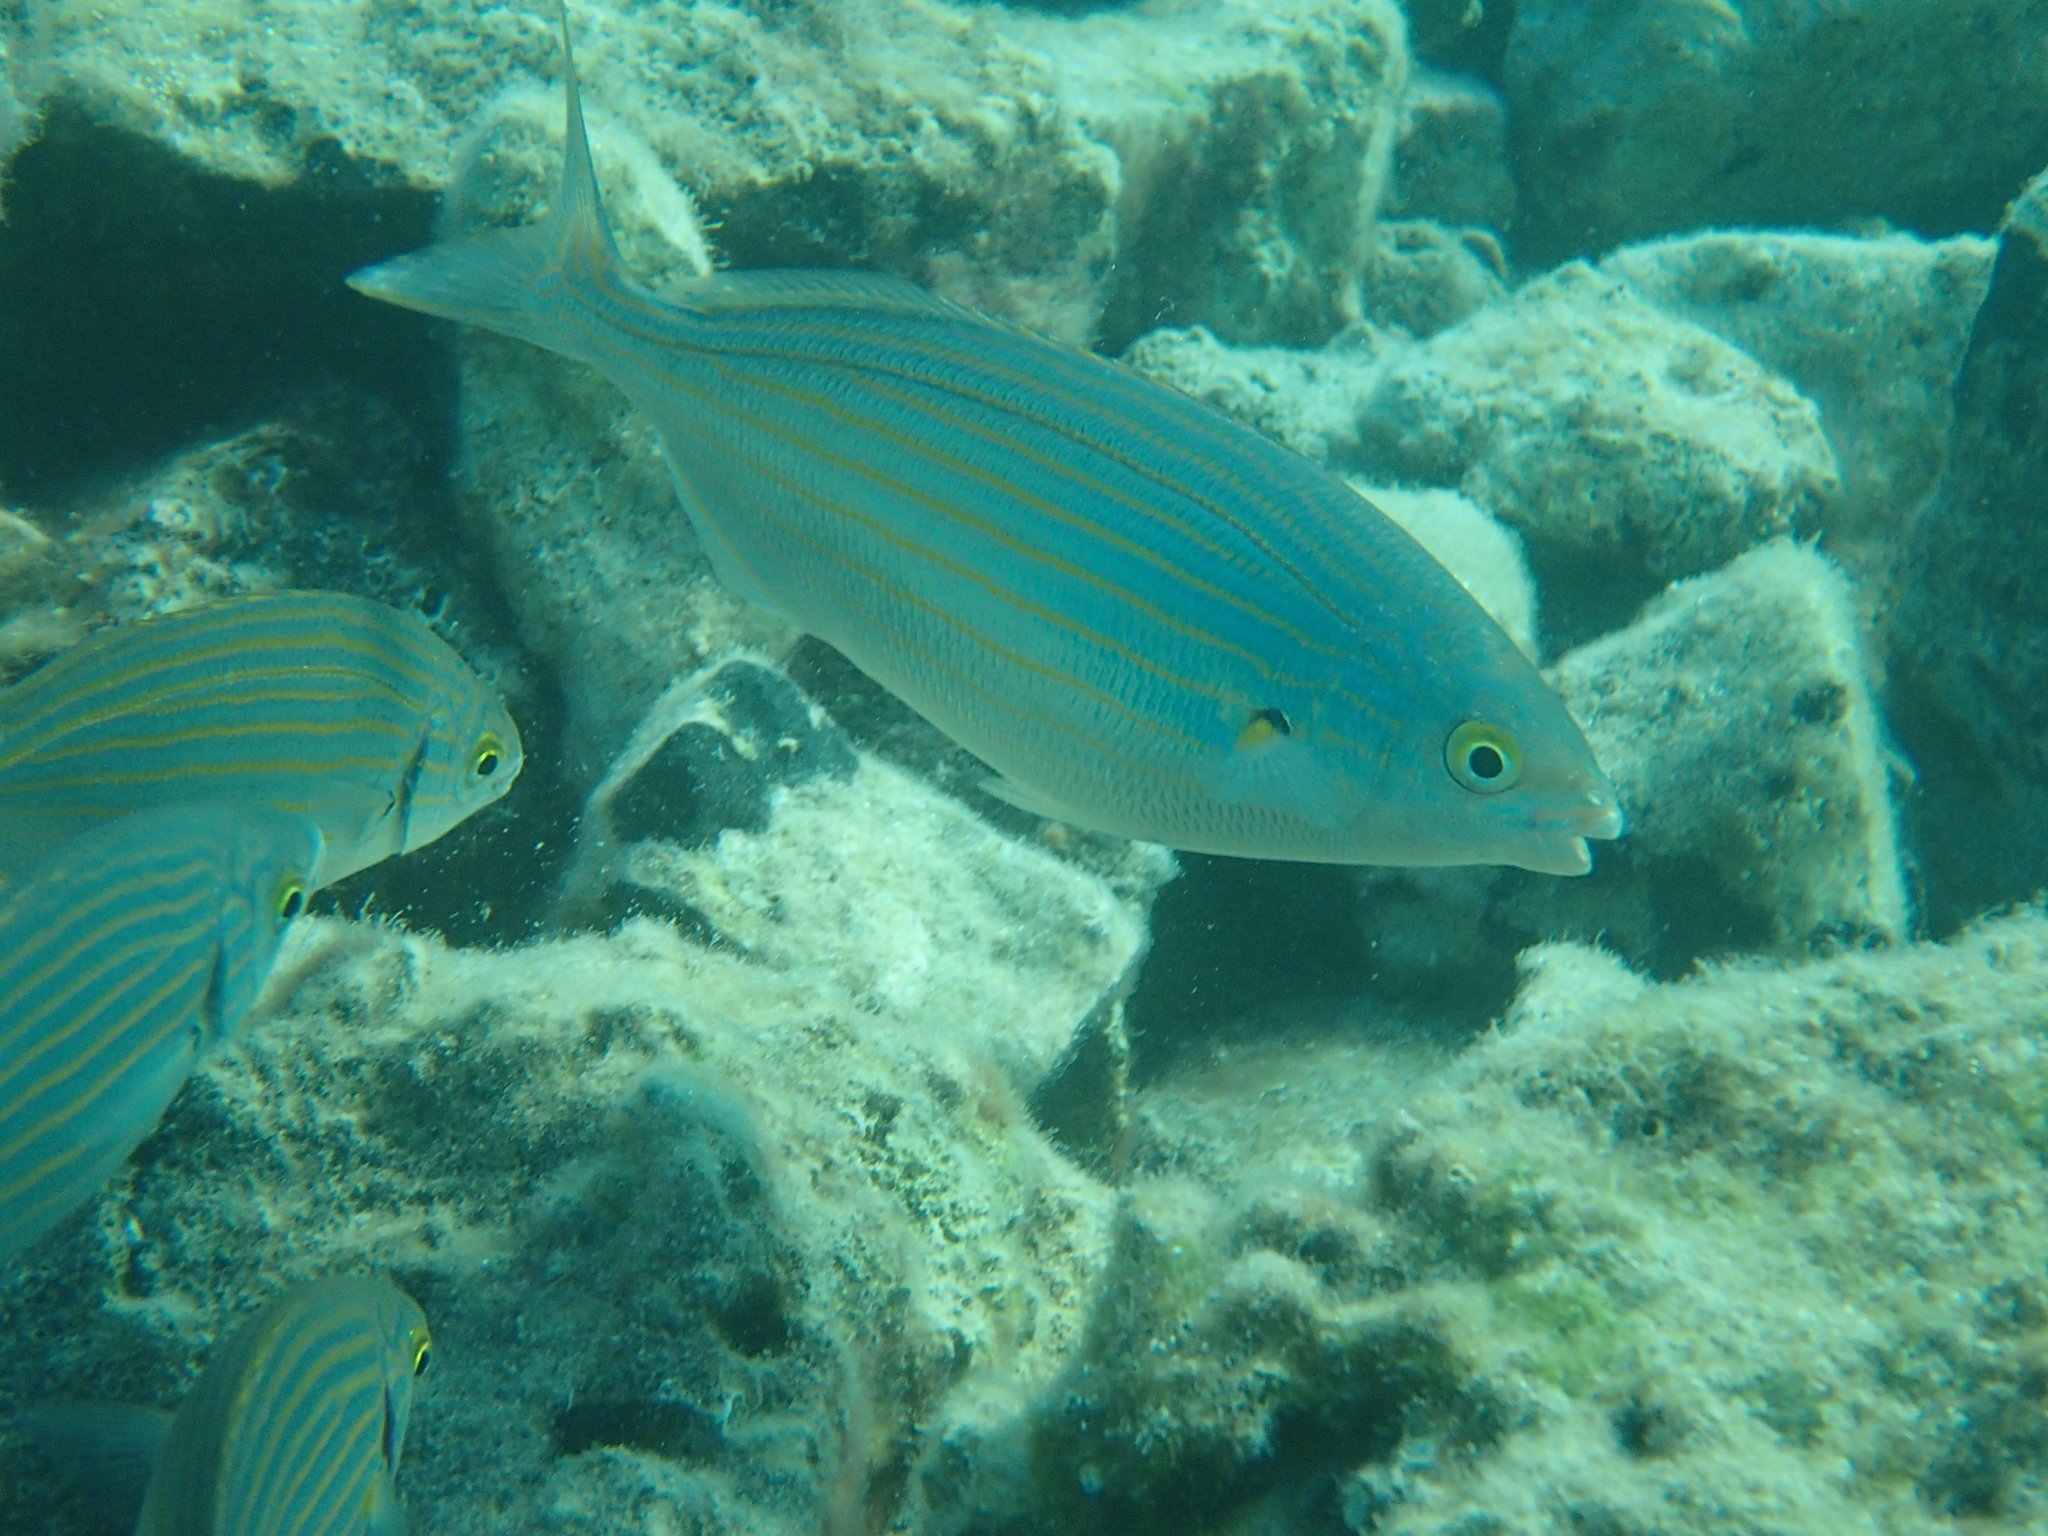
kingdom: Animalia
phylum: Chordata
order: Perciformes
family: Sparidae
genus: Sarpa
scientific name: Sarpa salpa
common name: Salema
